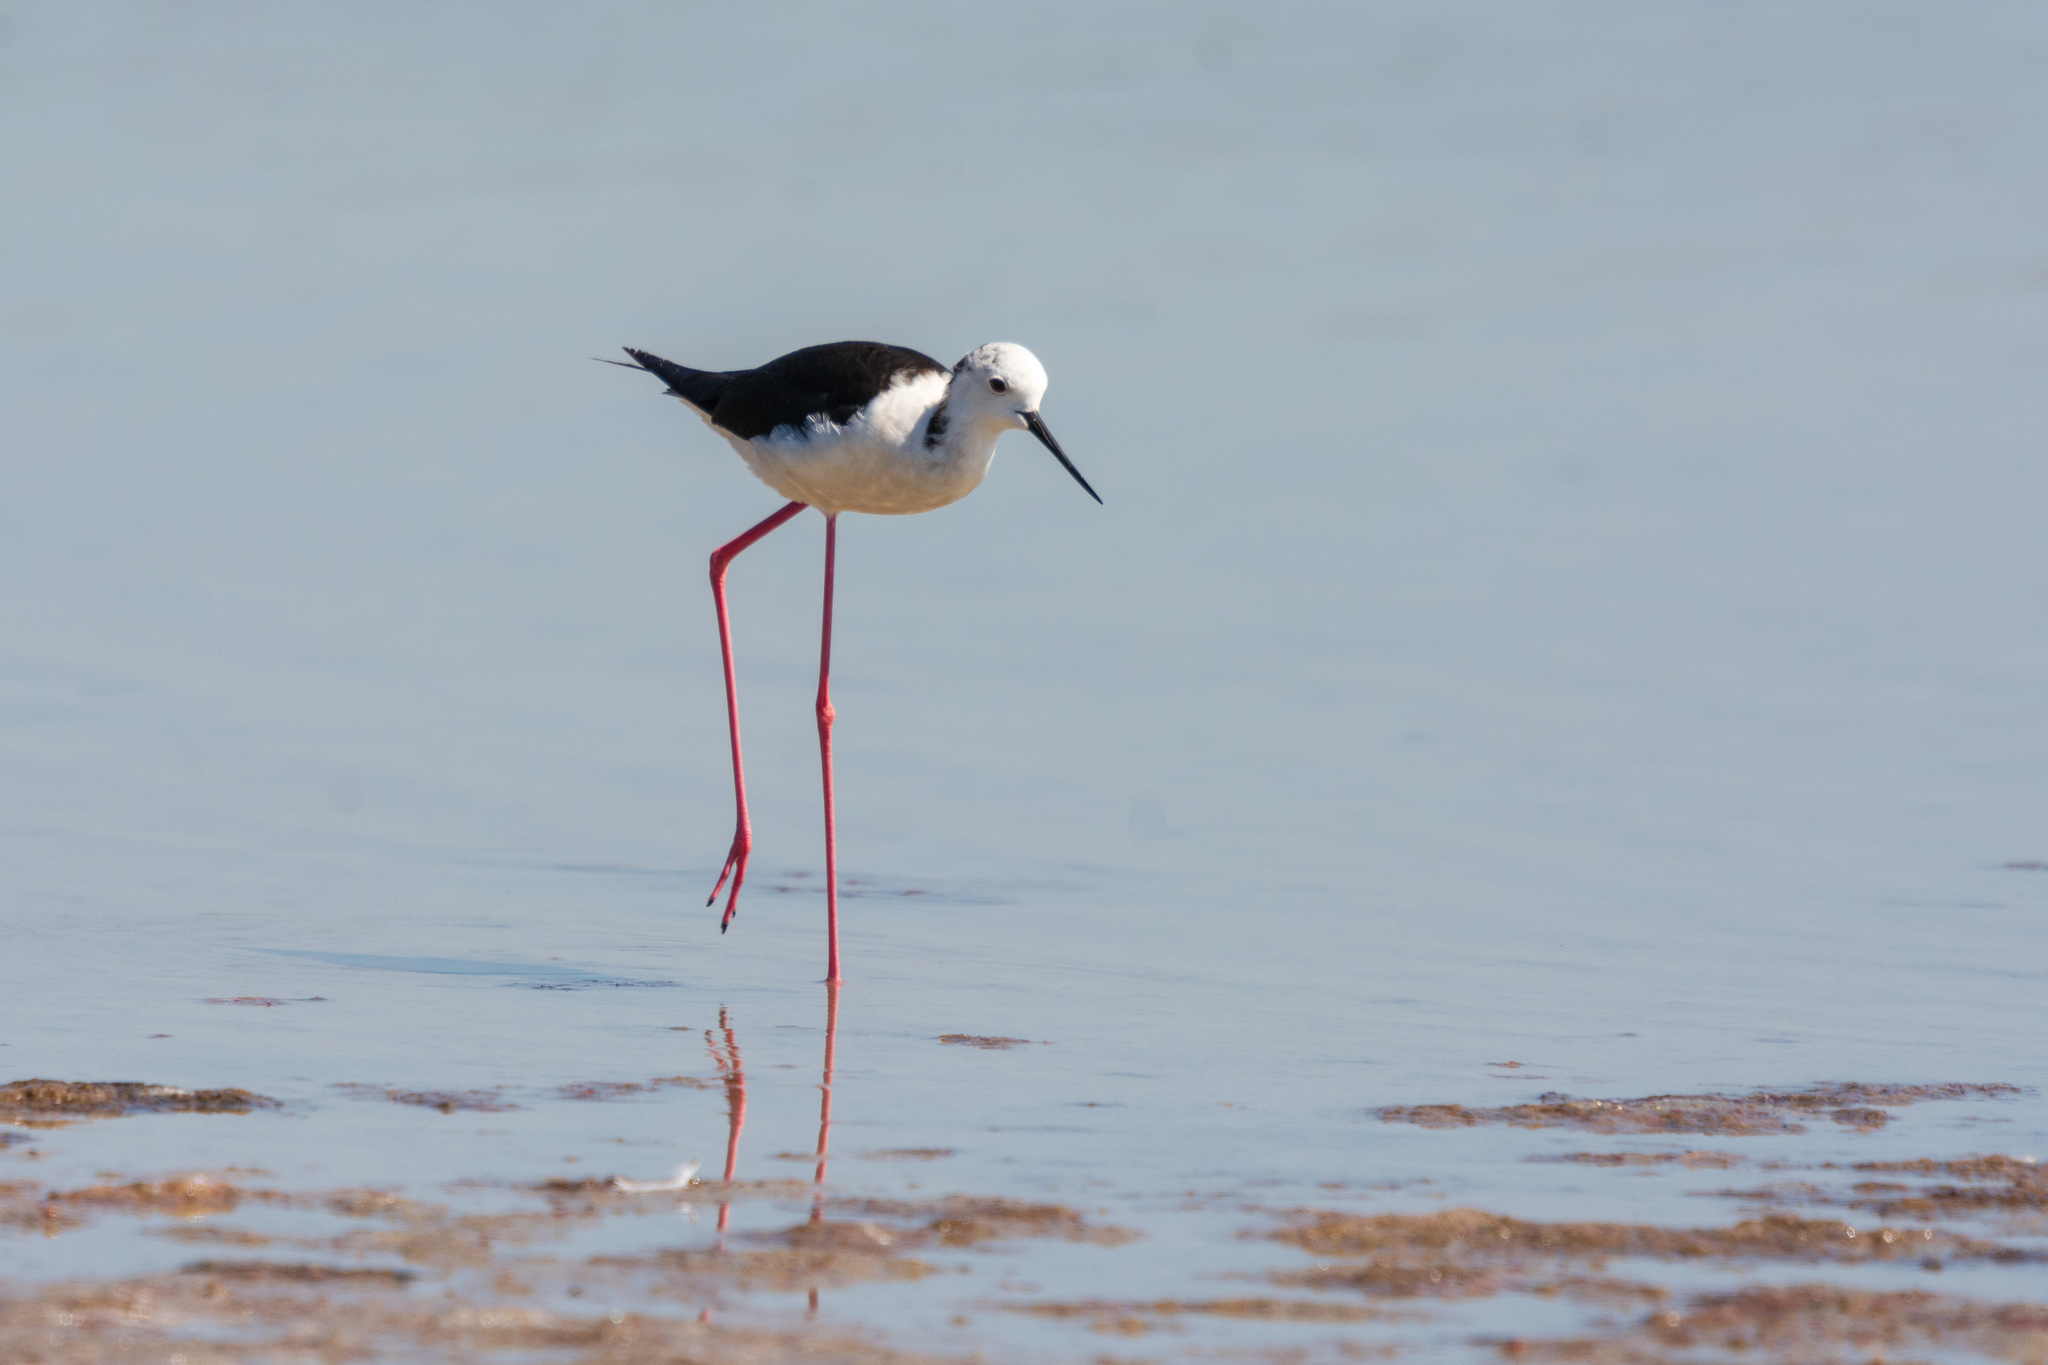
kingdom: Animalia
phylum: Chordata
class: Aves
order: Charadriiformes
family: Recurvirostridae
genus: Himantopus
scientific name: Himantopus himantopus
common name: Black-winged stilt
